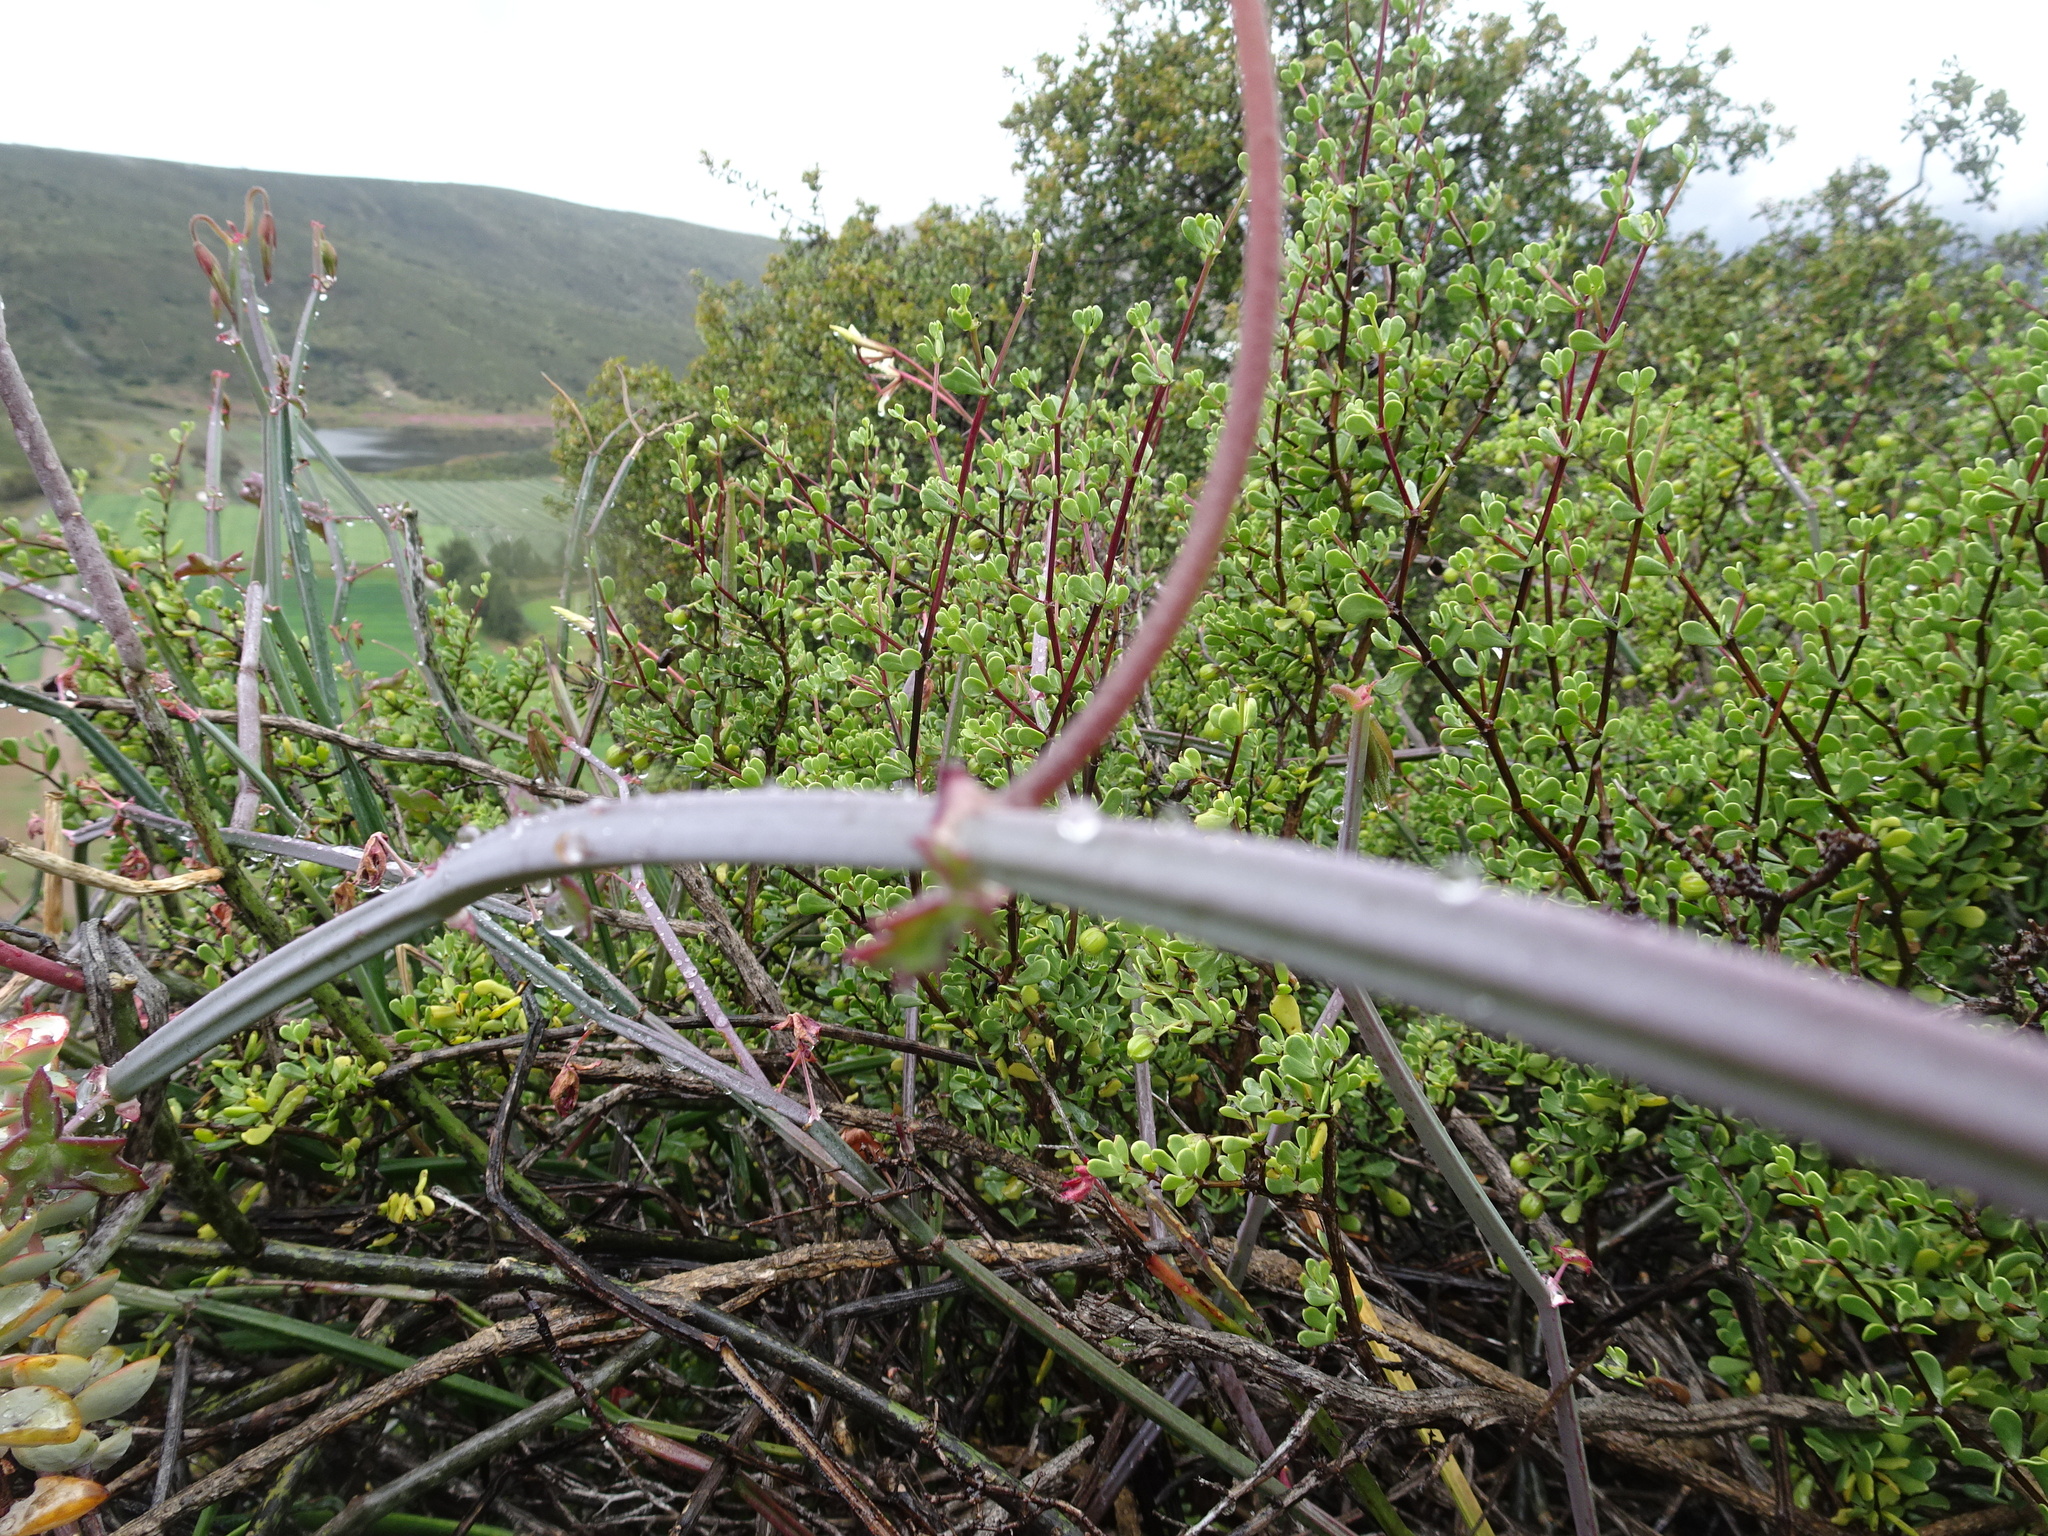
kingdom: Plantae
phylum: Tracheophyta
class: Magnoliopsida
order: Geraniales
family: Geraniaceae
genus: Pelargonium
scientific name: Pelargonium tetragonum
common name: Square-stack crane's-bill
